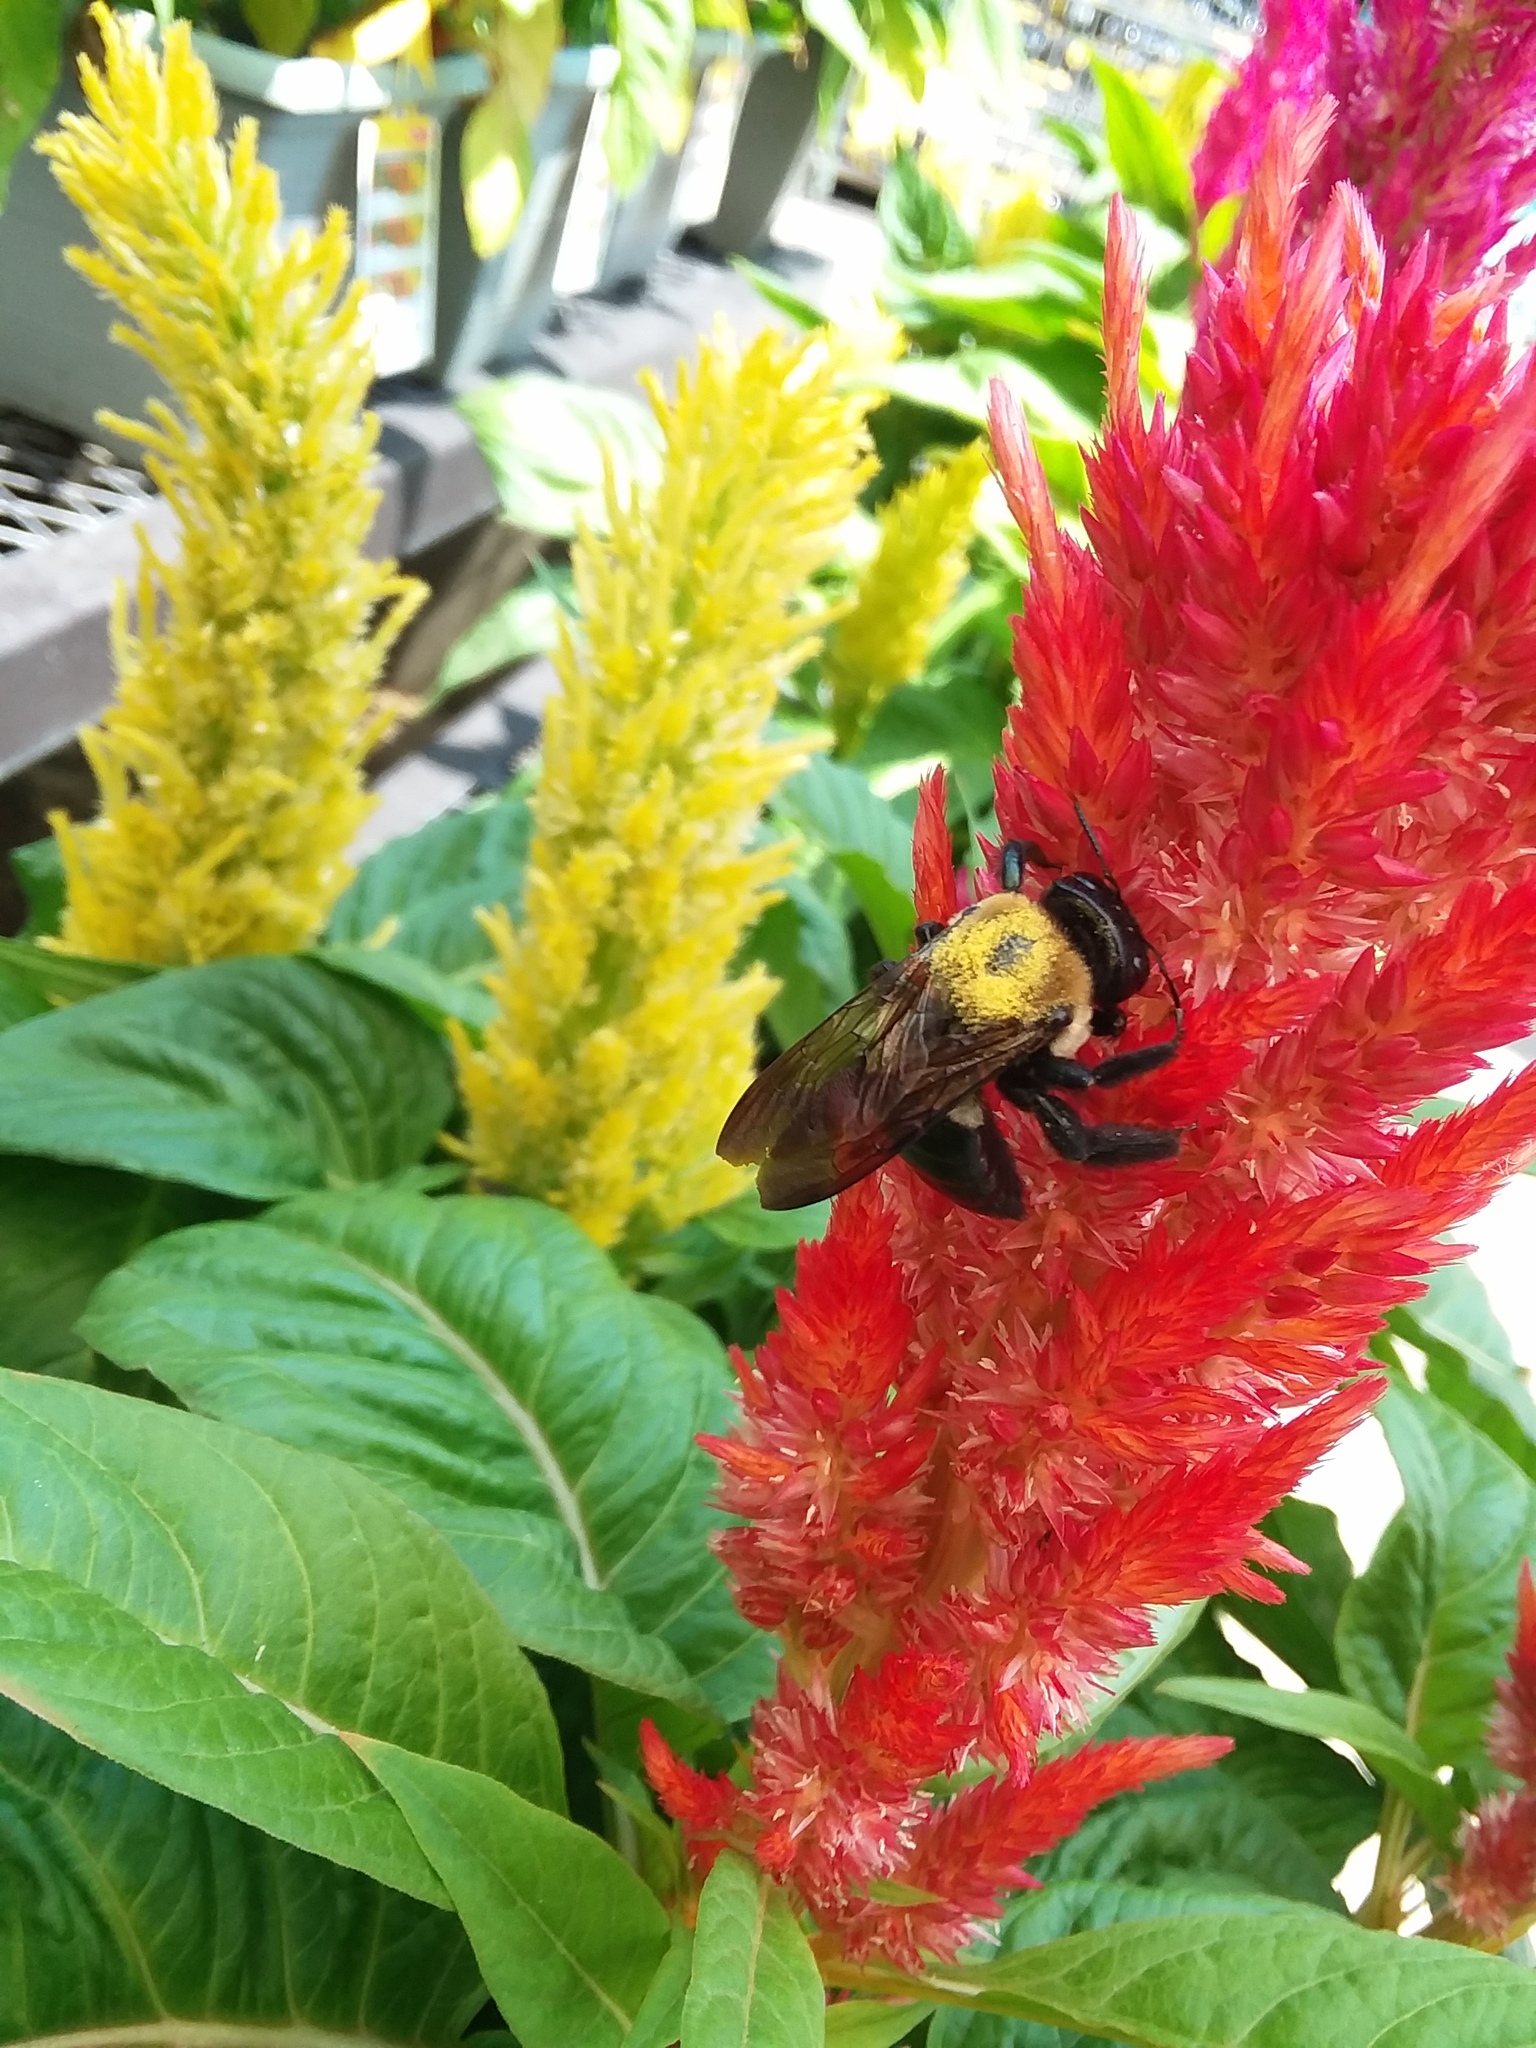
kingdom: Animalia
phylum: Arthropoda
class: Insecta
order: Hymenoptera
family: Apidae
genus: Xylocopa
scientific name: Xylocopa virginica
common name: Carpenter bee
